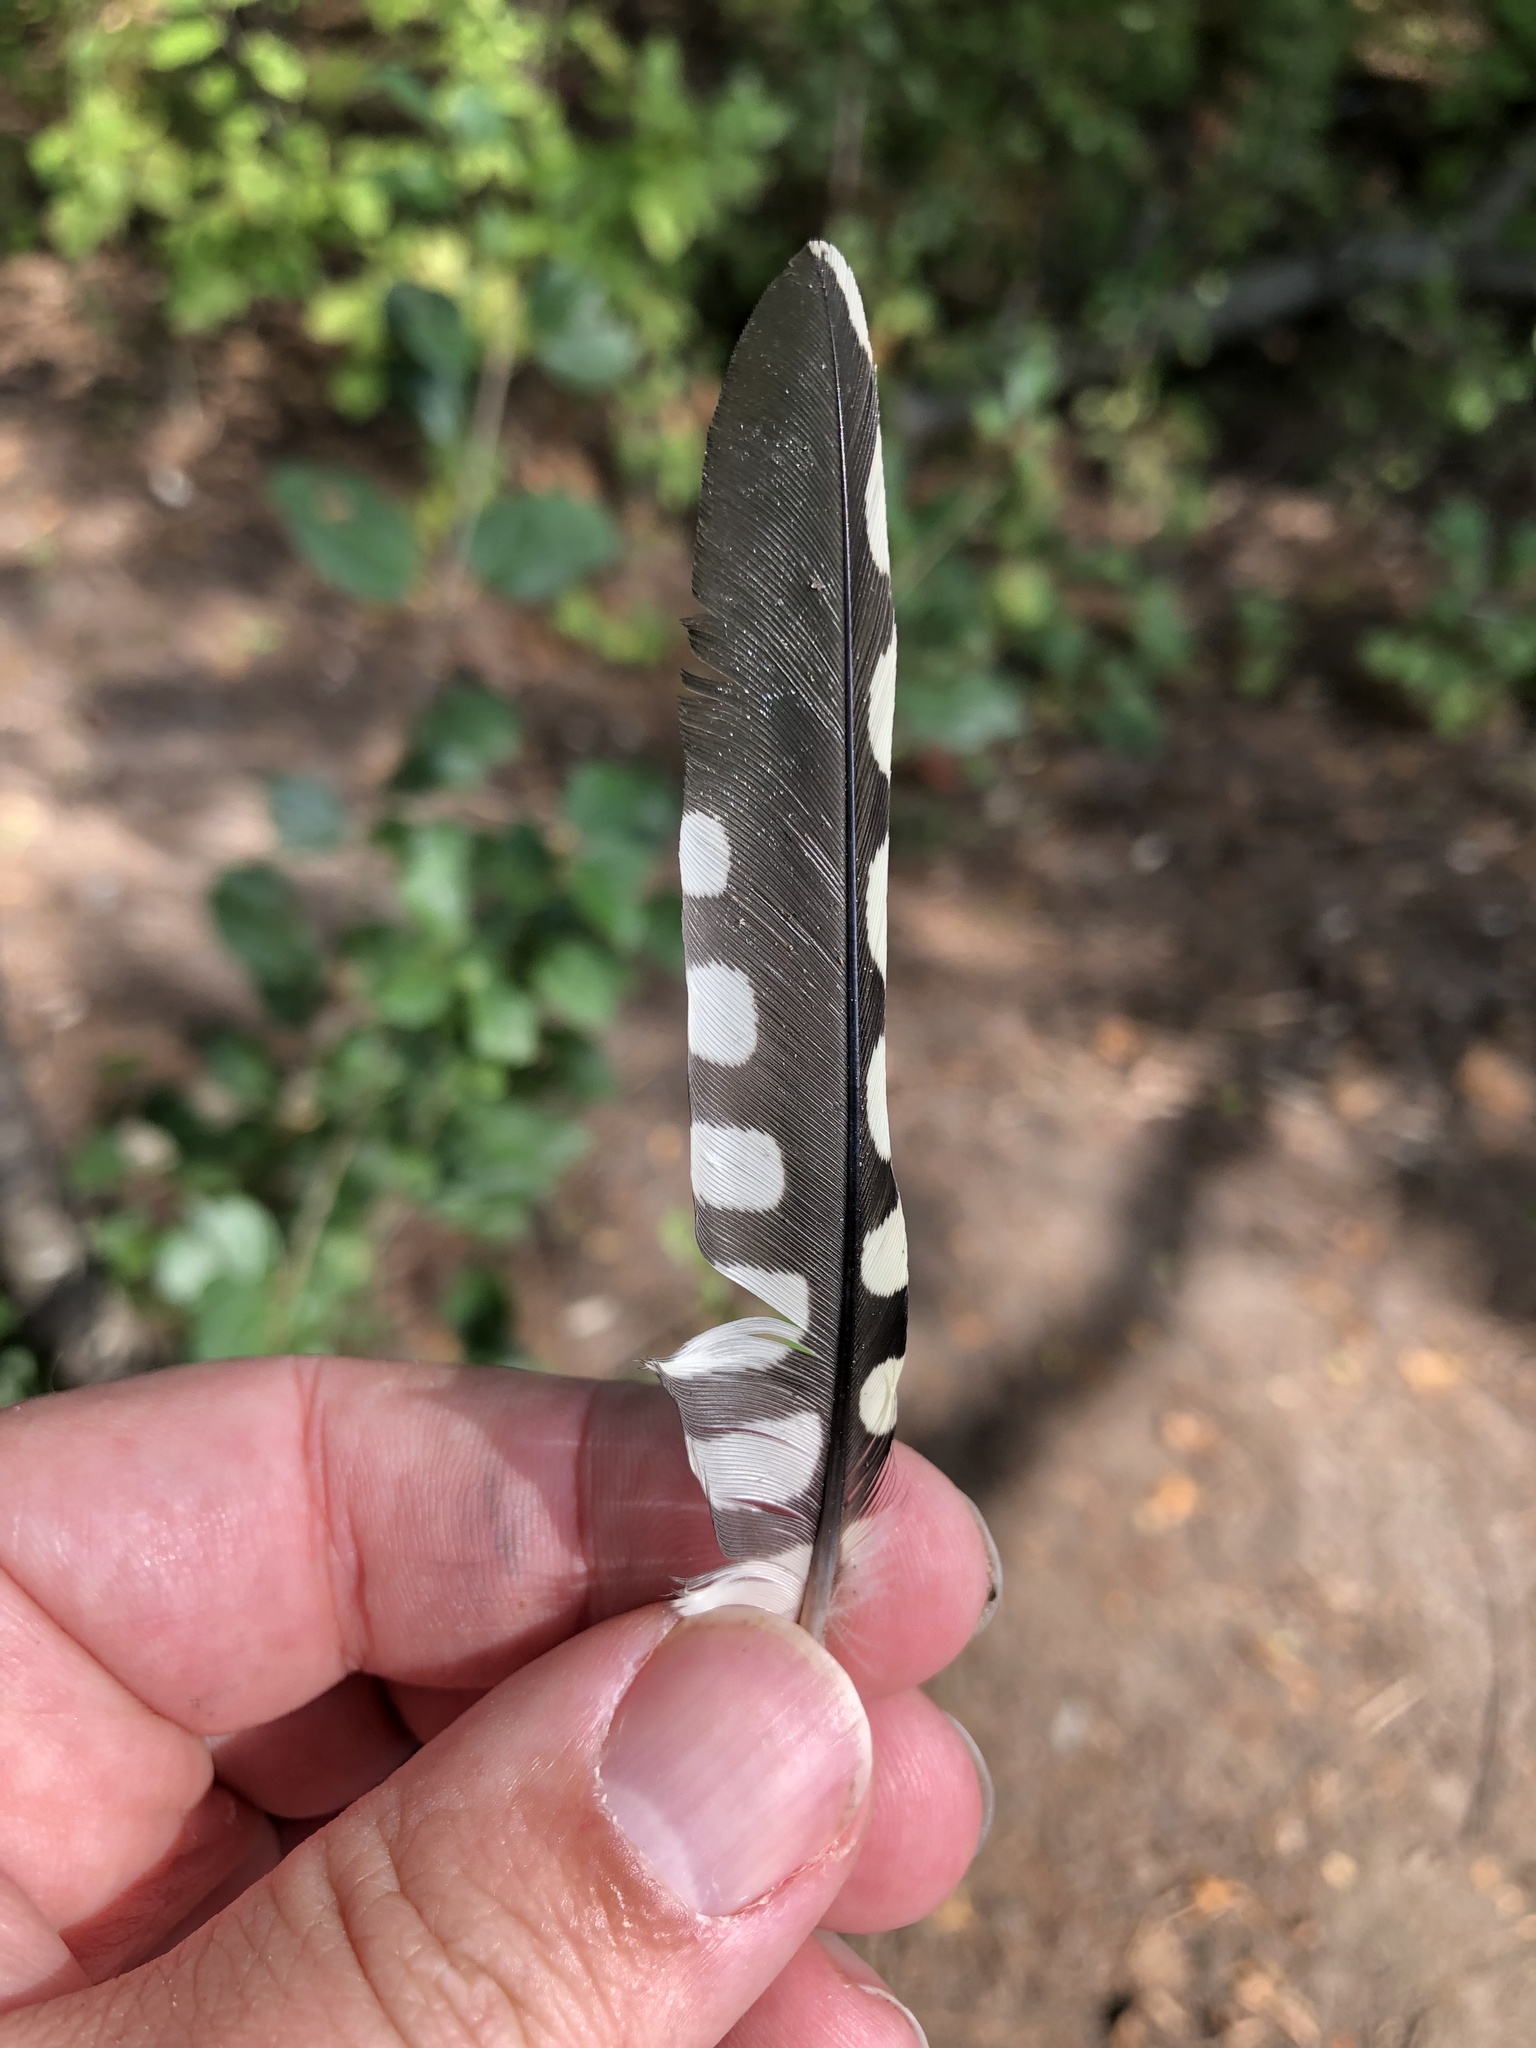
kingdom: Animalia
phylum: Chordata
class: Aves
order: Piciformes
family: Picidae
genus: Sphyrapicus
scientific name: Sphyrapicus varius
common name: Yellow-bellied sapsucker
